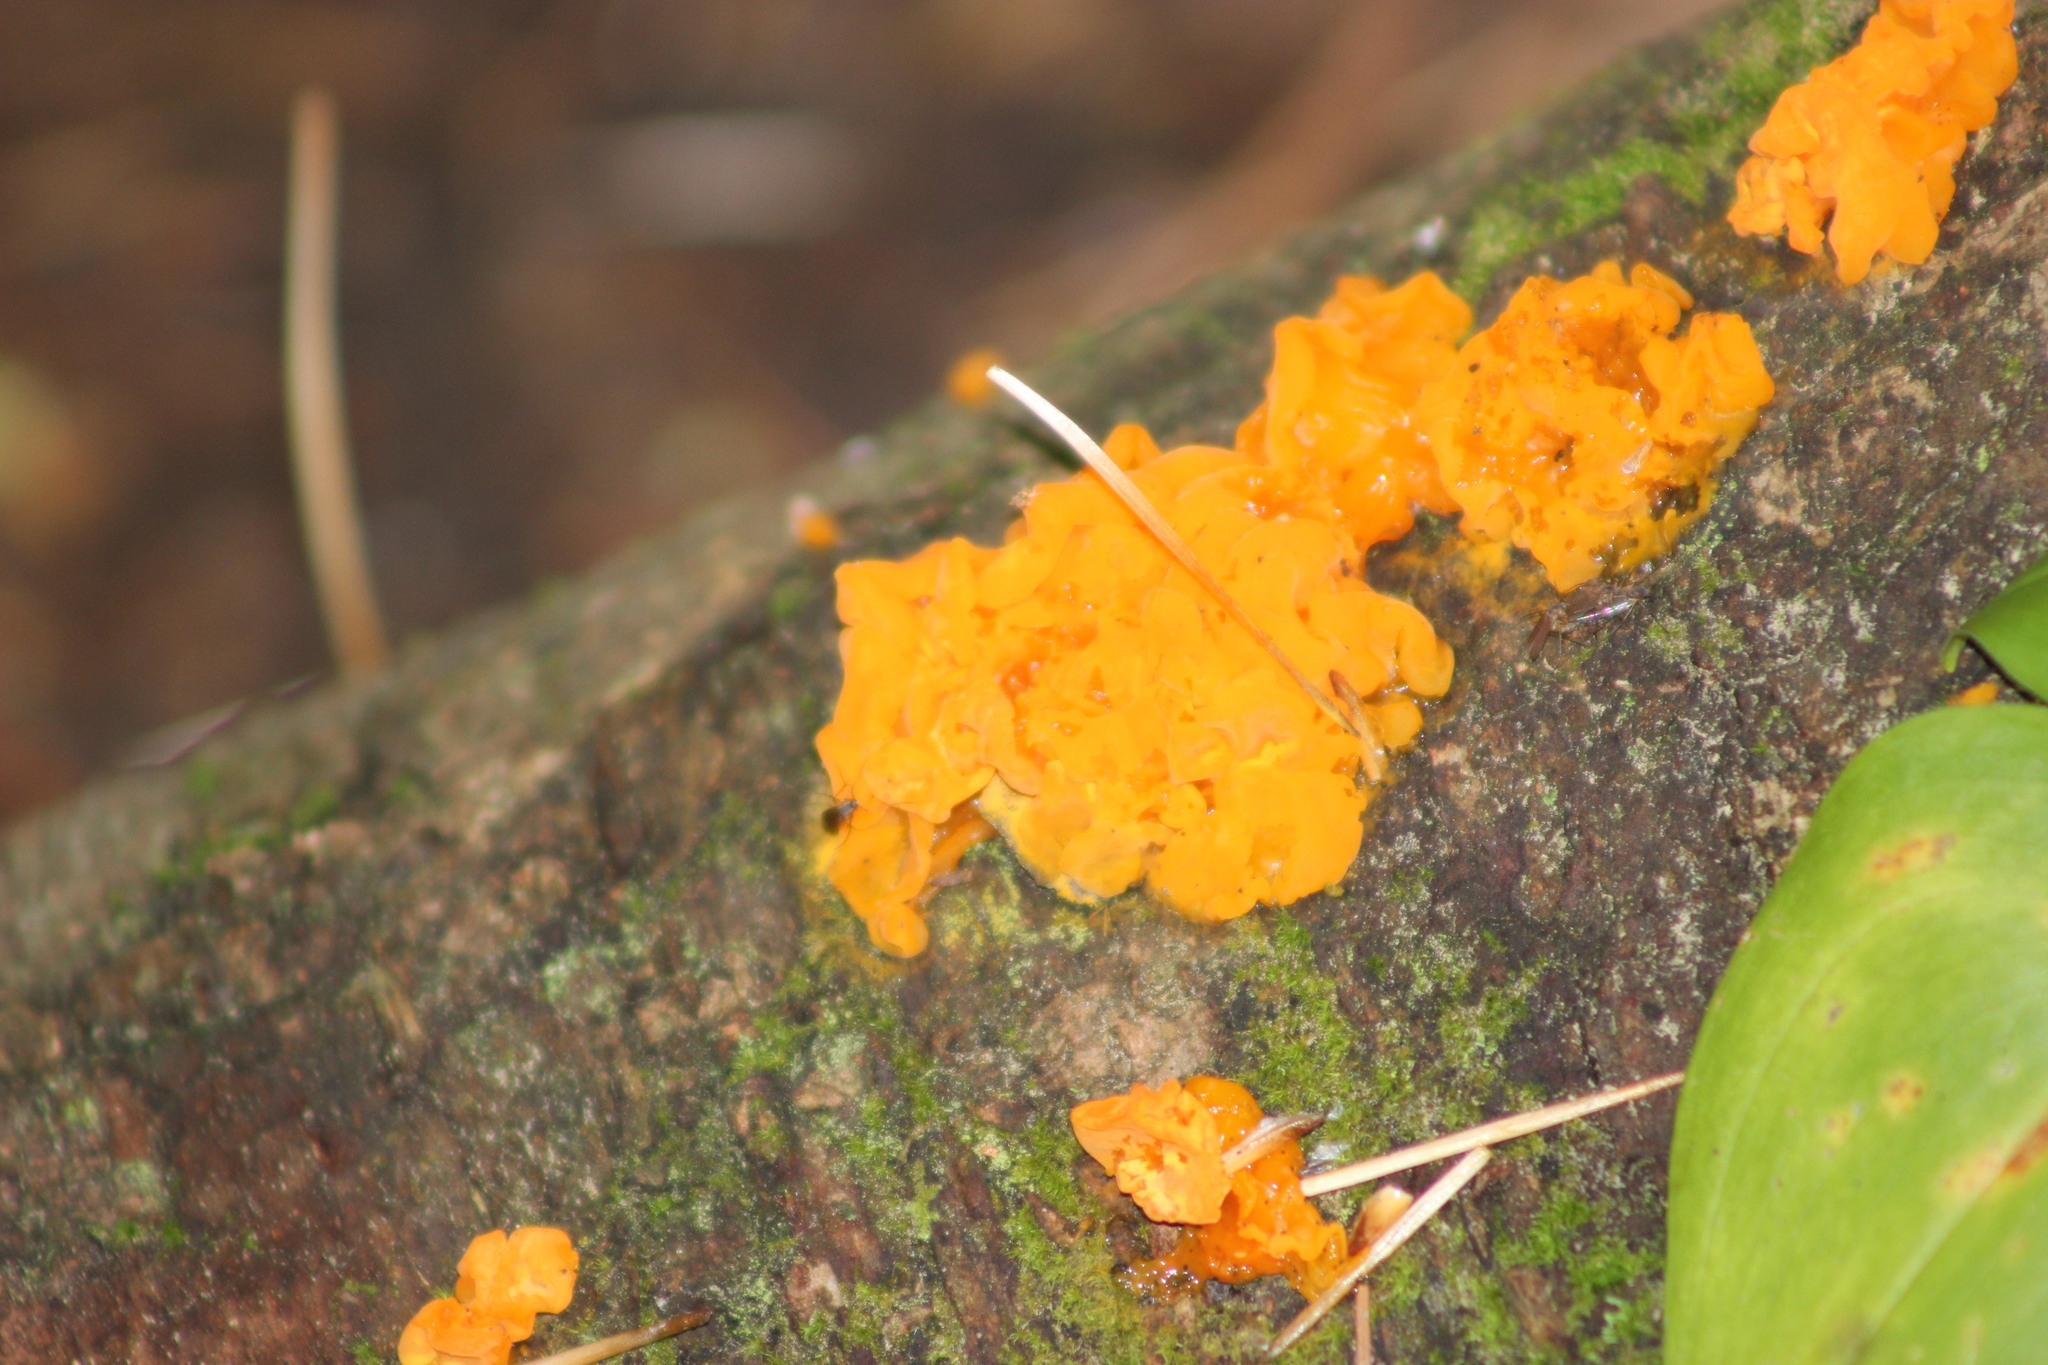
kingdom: Fungi
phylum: Basidiomycota
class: Tremellomycetes
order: Tremellales
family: Tremellaceae
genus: Tremella
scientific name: Tremella mesenterica
